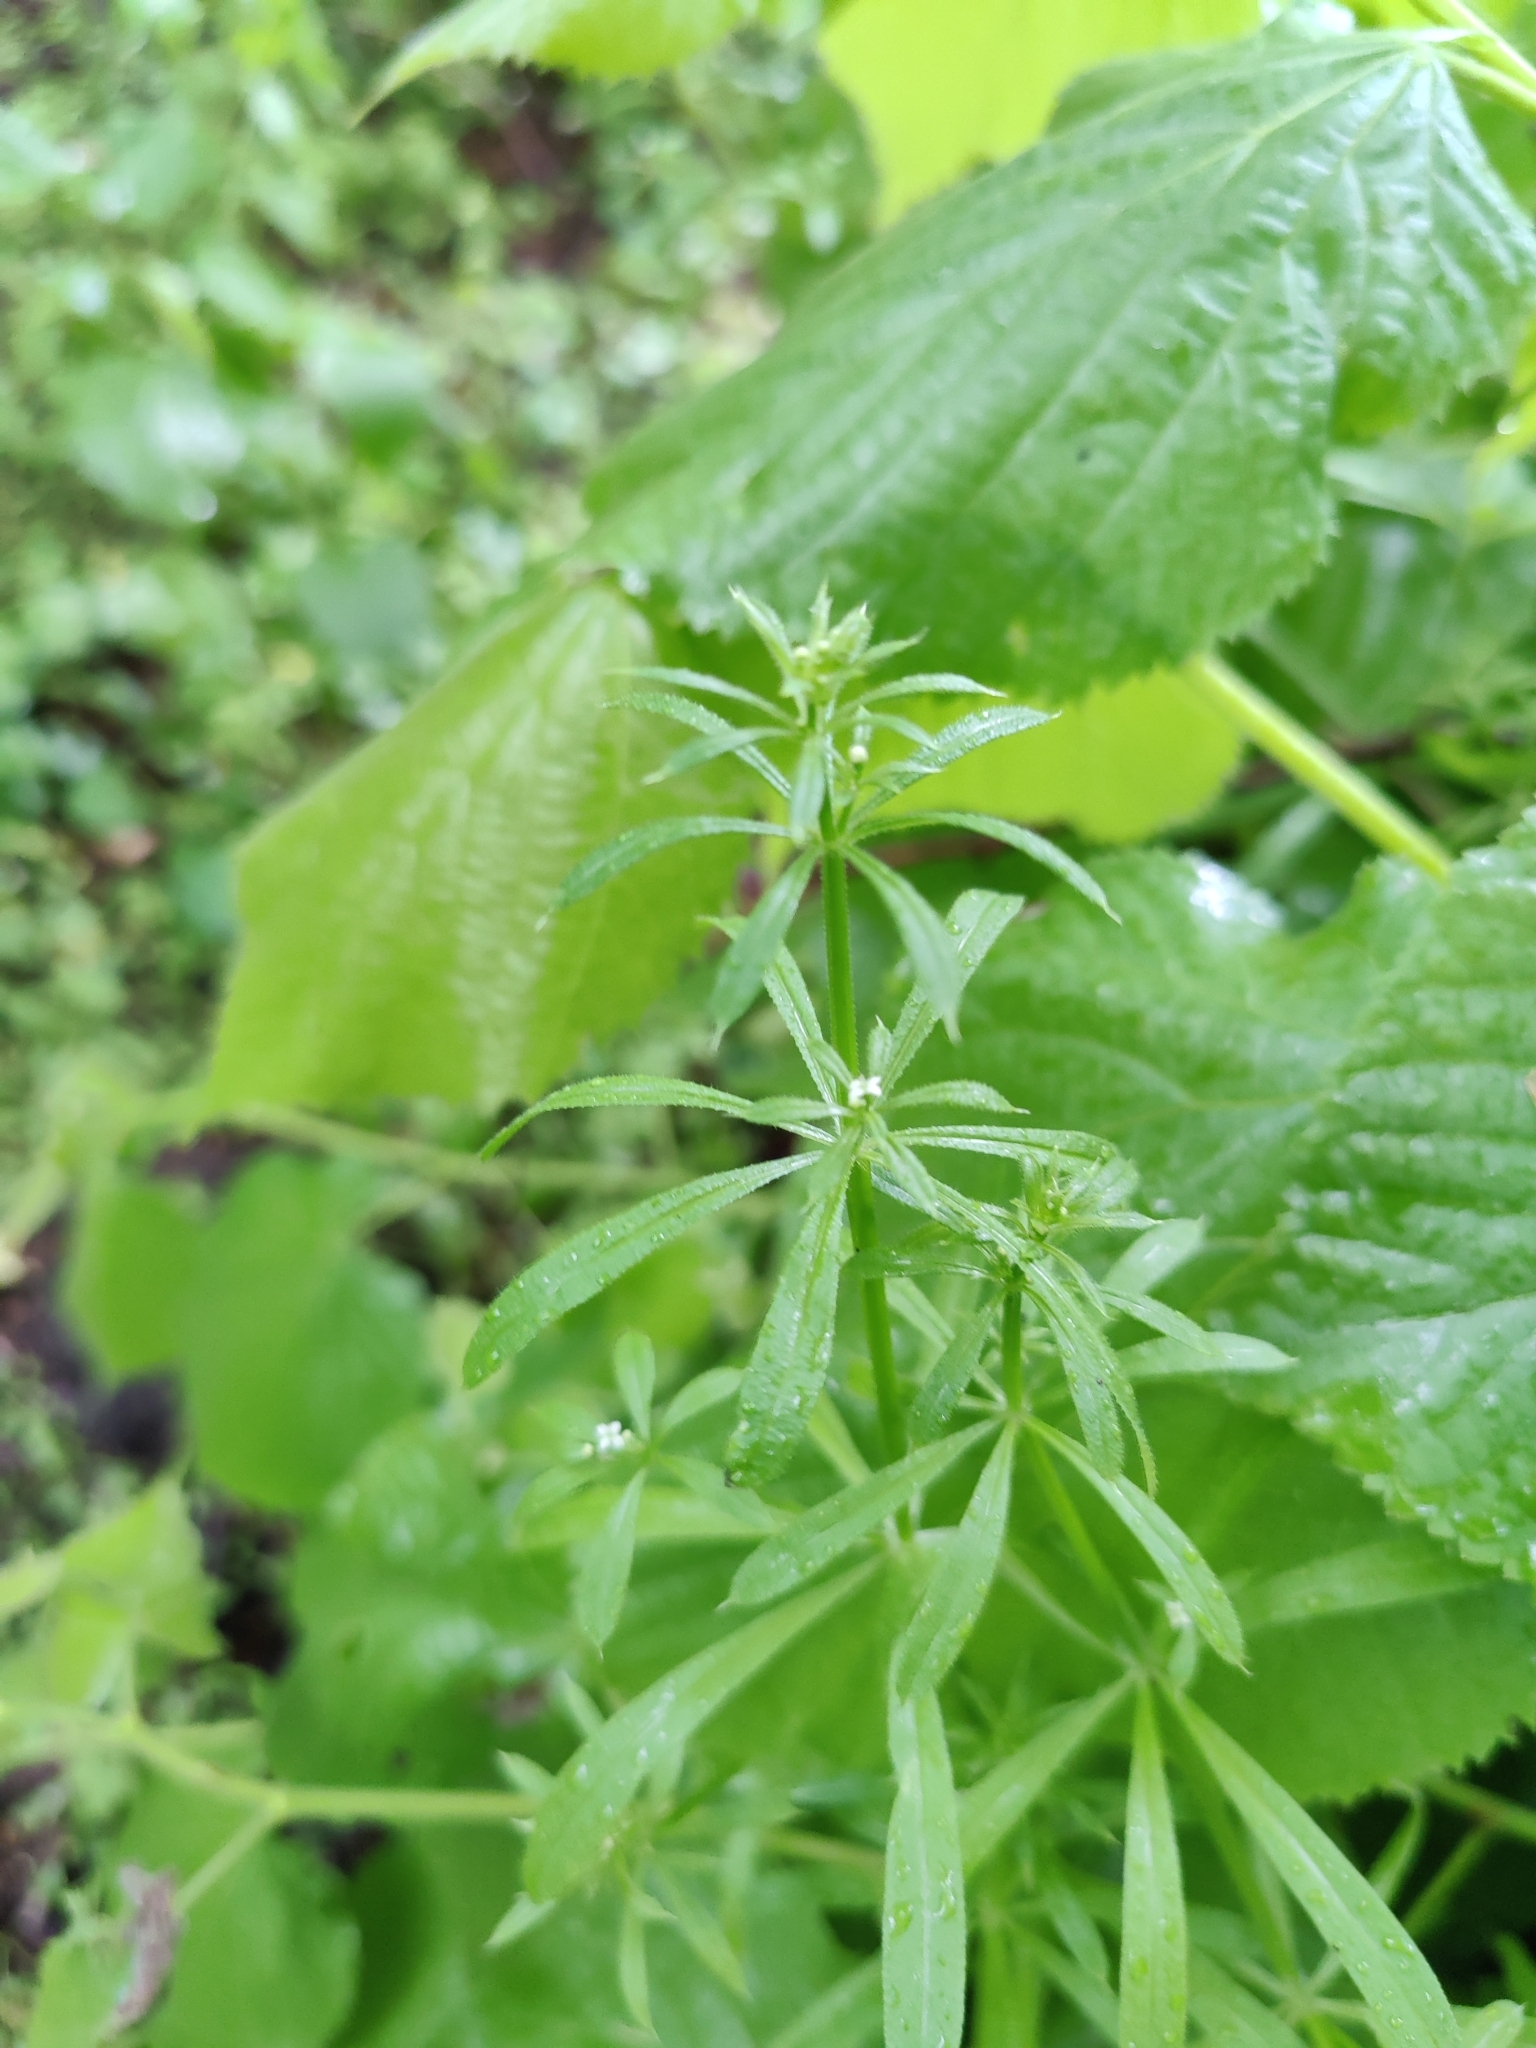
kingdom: Plantae
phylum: Tracheophyta
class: Magnoliopsida
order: Gentianales
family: Rubiaceae
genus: Galium
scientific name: Galium aparine
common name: Cleavers
